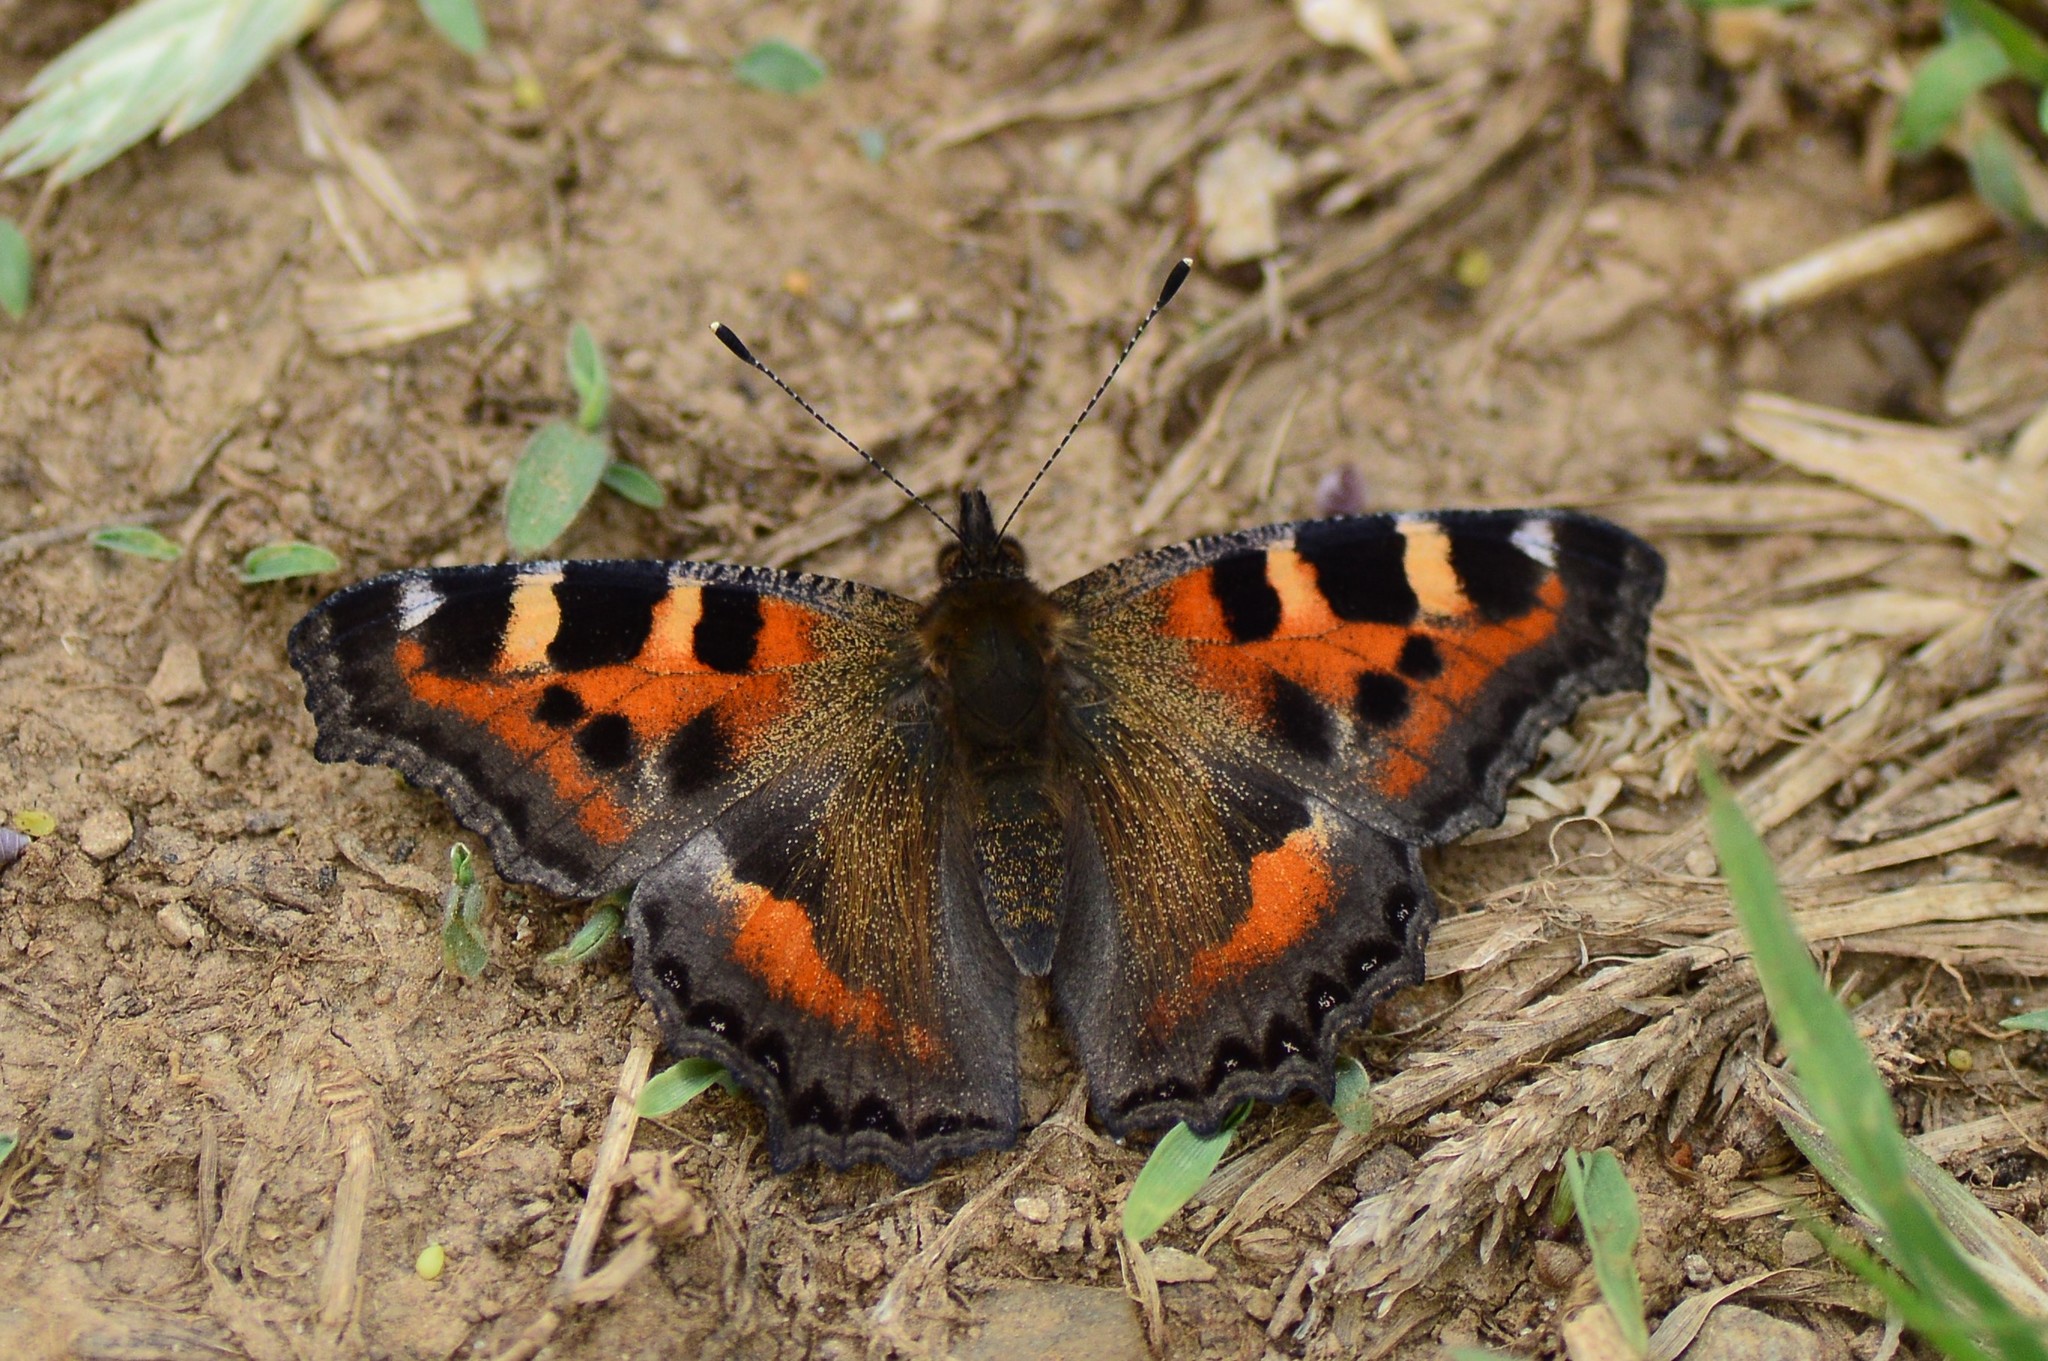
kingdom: Animalia
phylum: Arthropoda
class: Insecta
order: Lepidoptera
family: Nymphalidae
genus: Aglais
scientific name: Aglais caschmirensis
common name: Indian tortoiseshell
